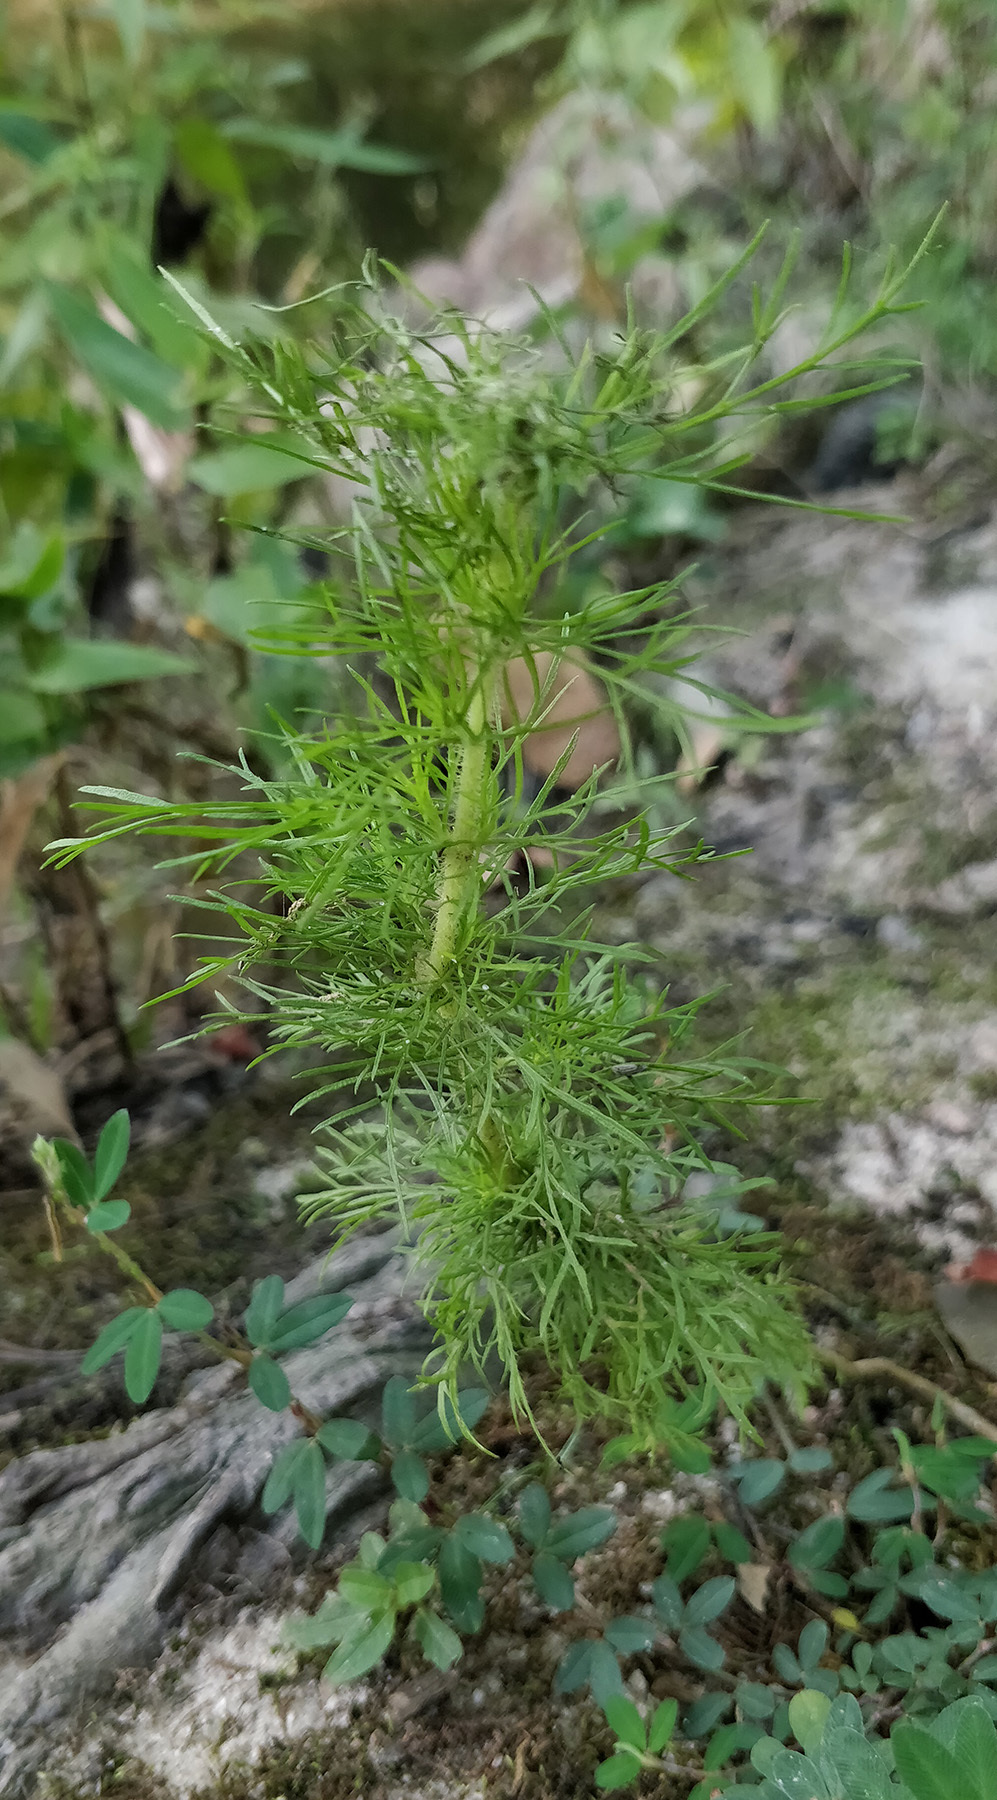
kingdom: Plantae
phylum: Tracheophyta
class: Magnoliopsida
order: Asterales
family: Asteraceae
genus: Eupatorium
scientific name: Eupatorium capillifolium
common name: Dog-fennel
